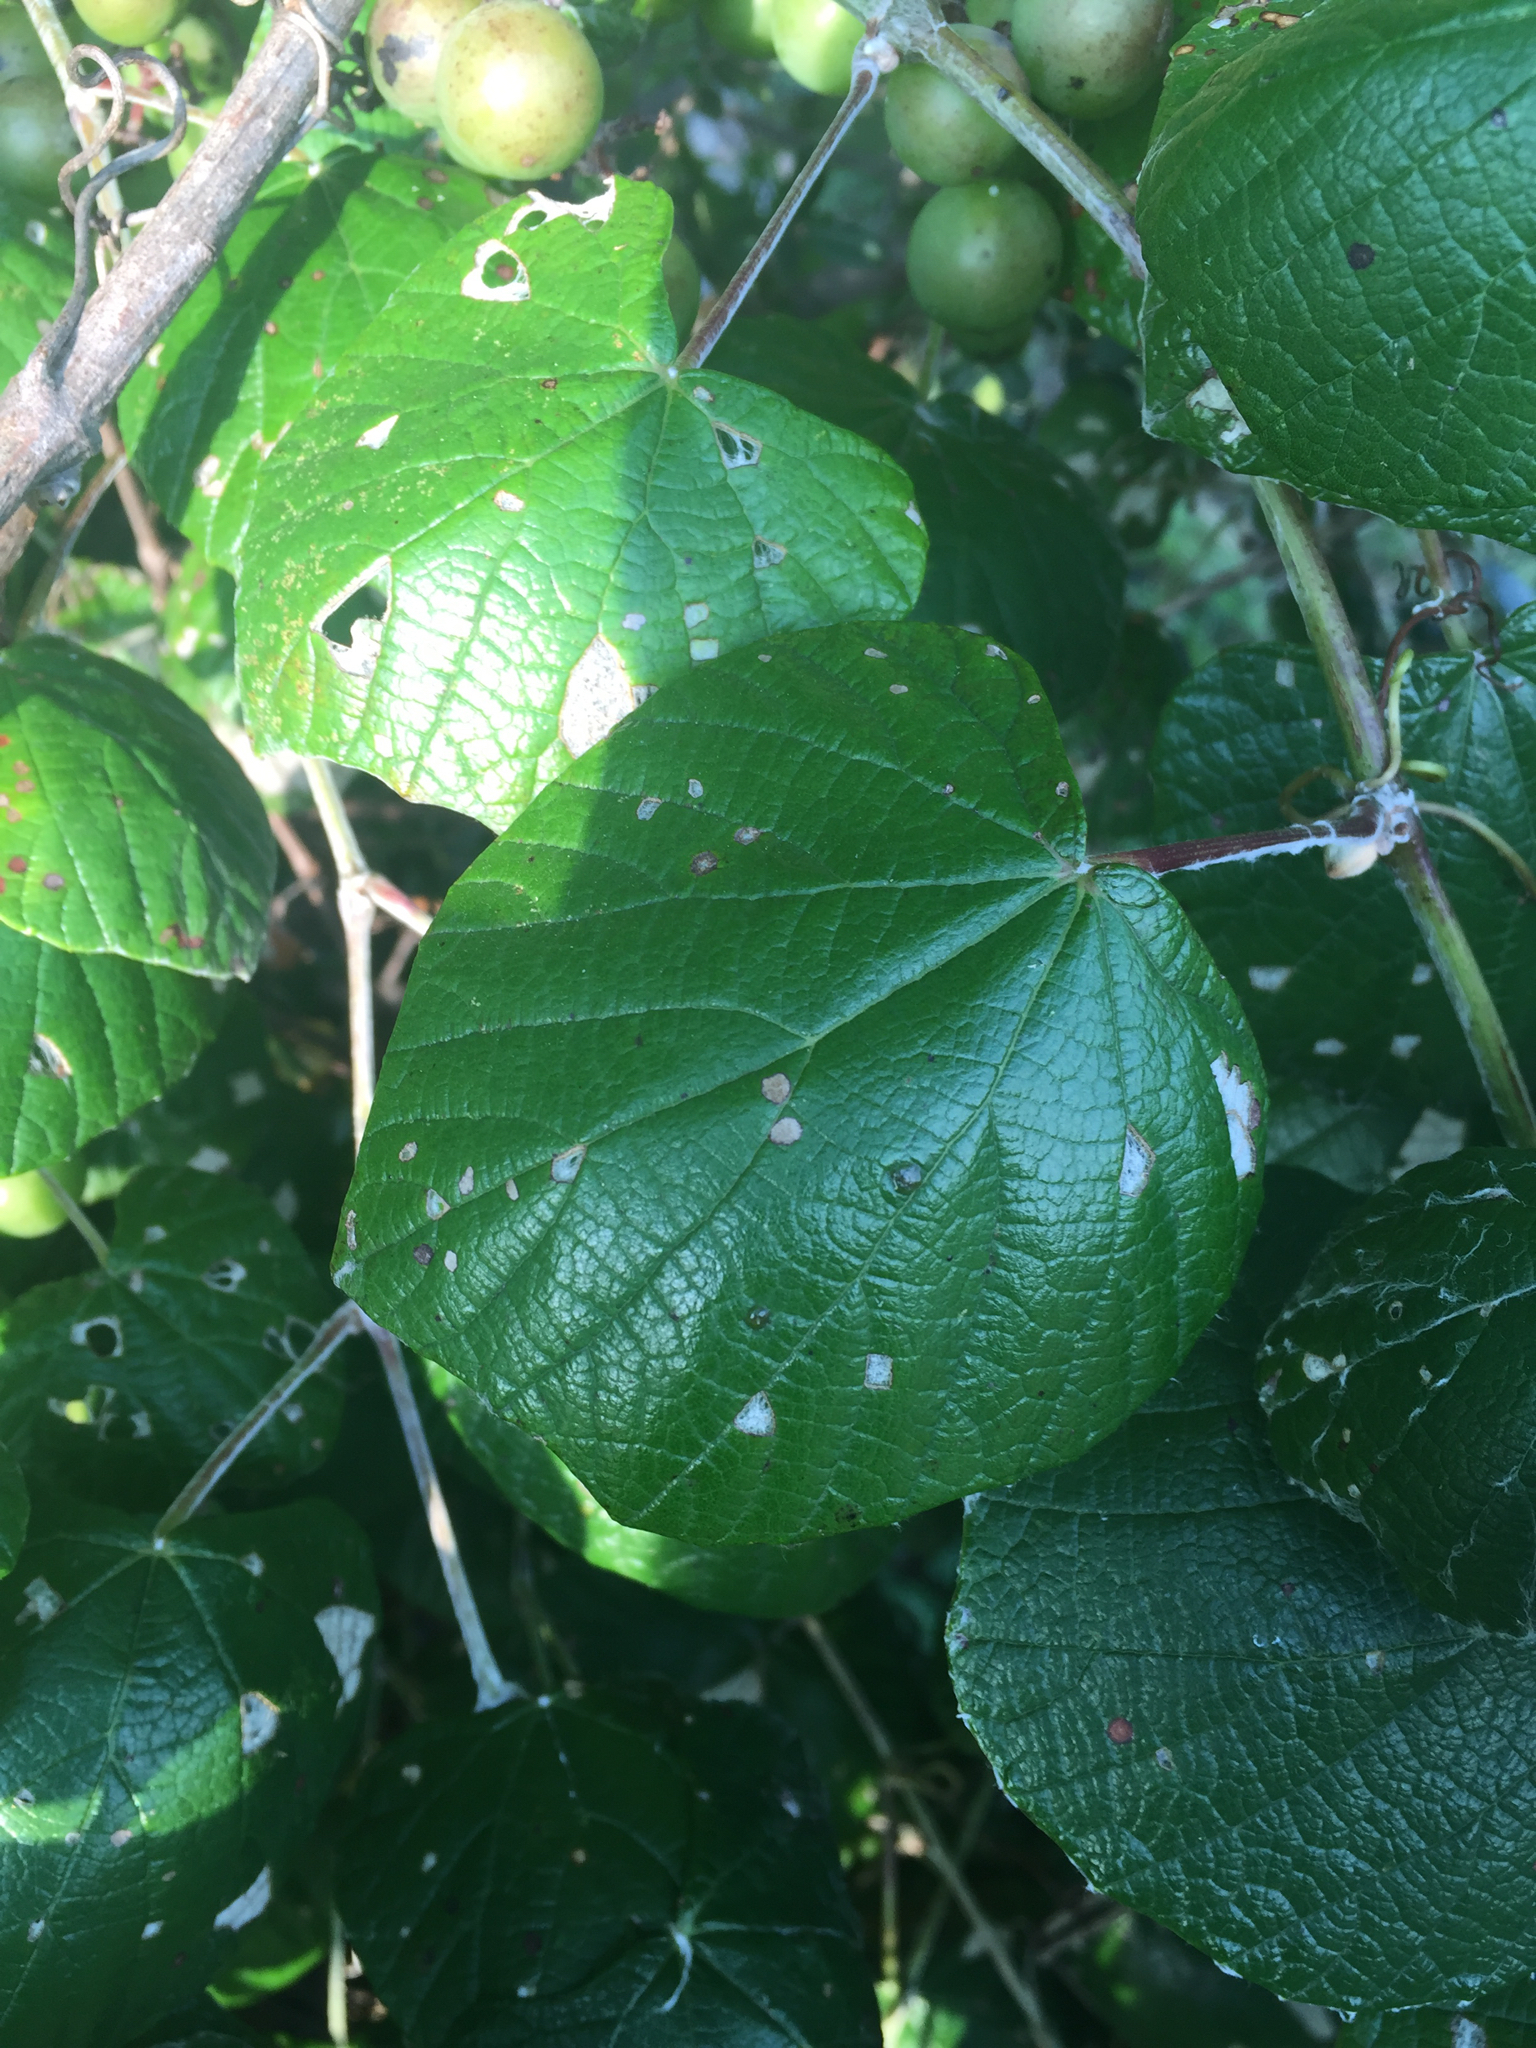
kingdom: Plantae
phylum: Tracheophyta
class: Magnoliopsida
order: Vitales
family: Vitaceae
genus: Vitis
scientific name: Vitis mustangensis
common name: Mustang grape
